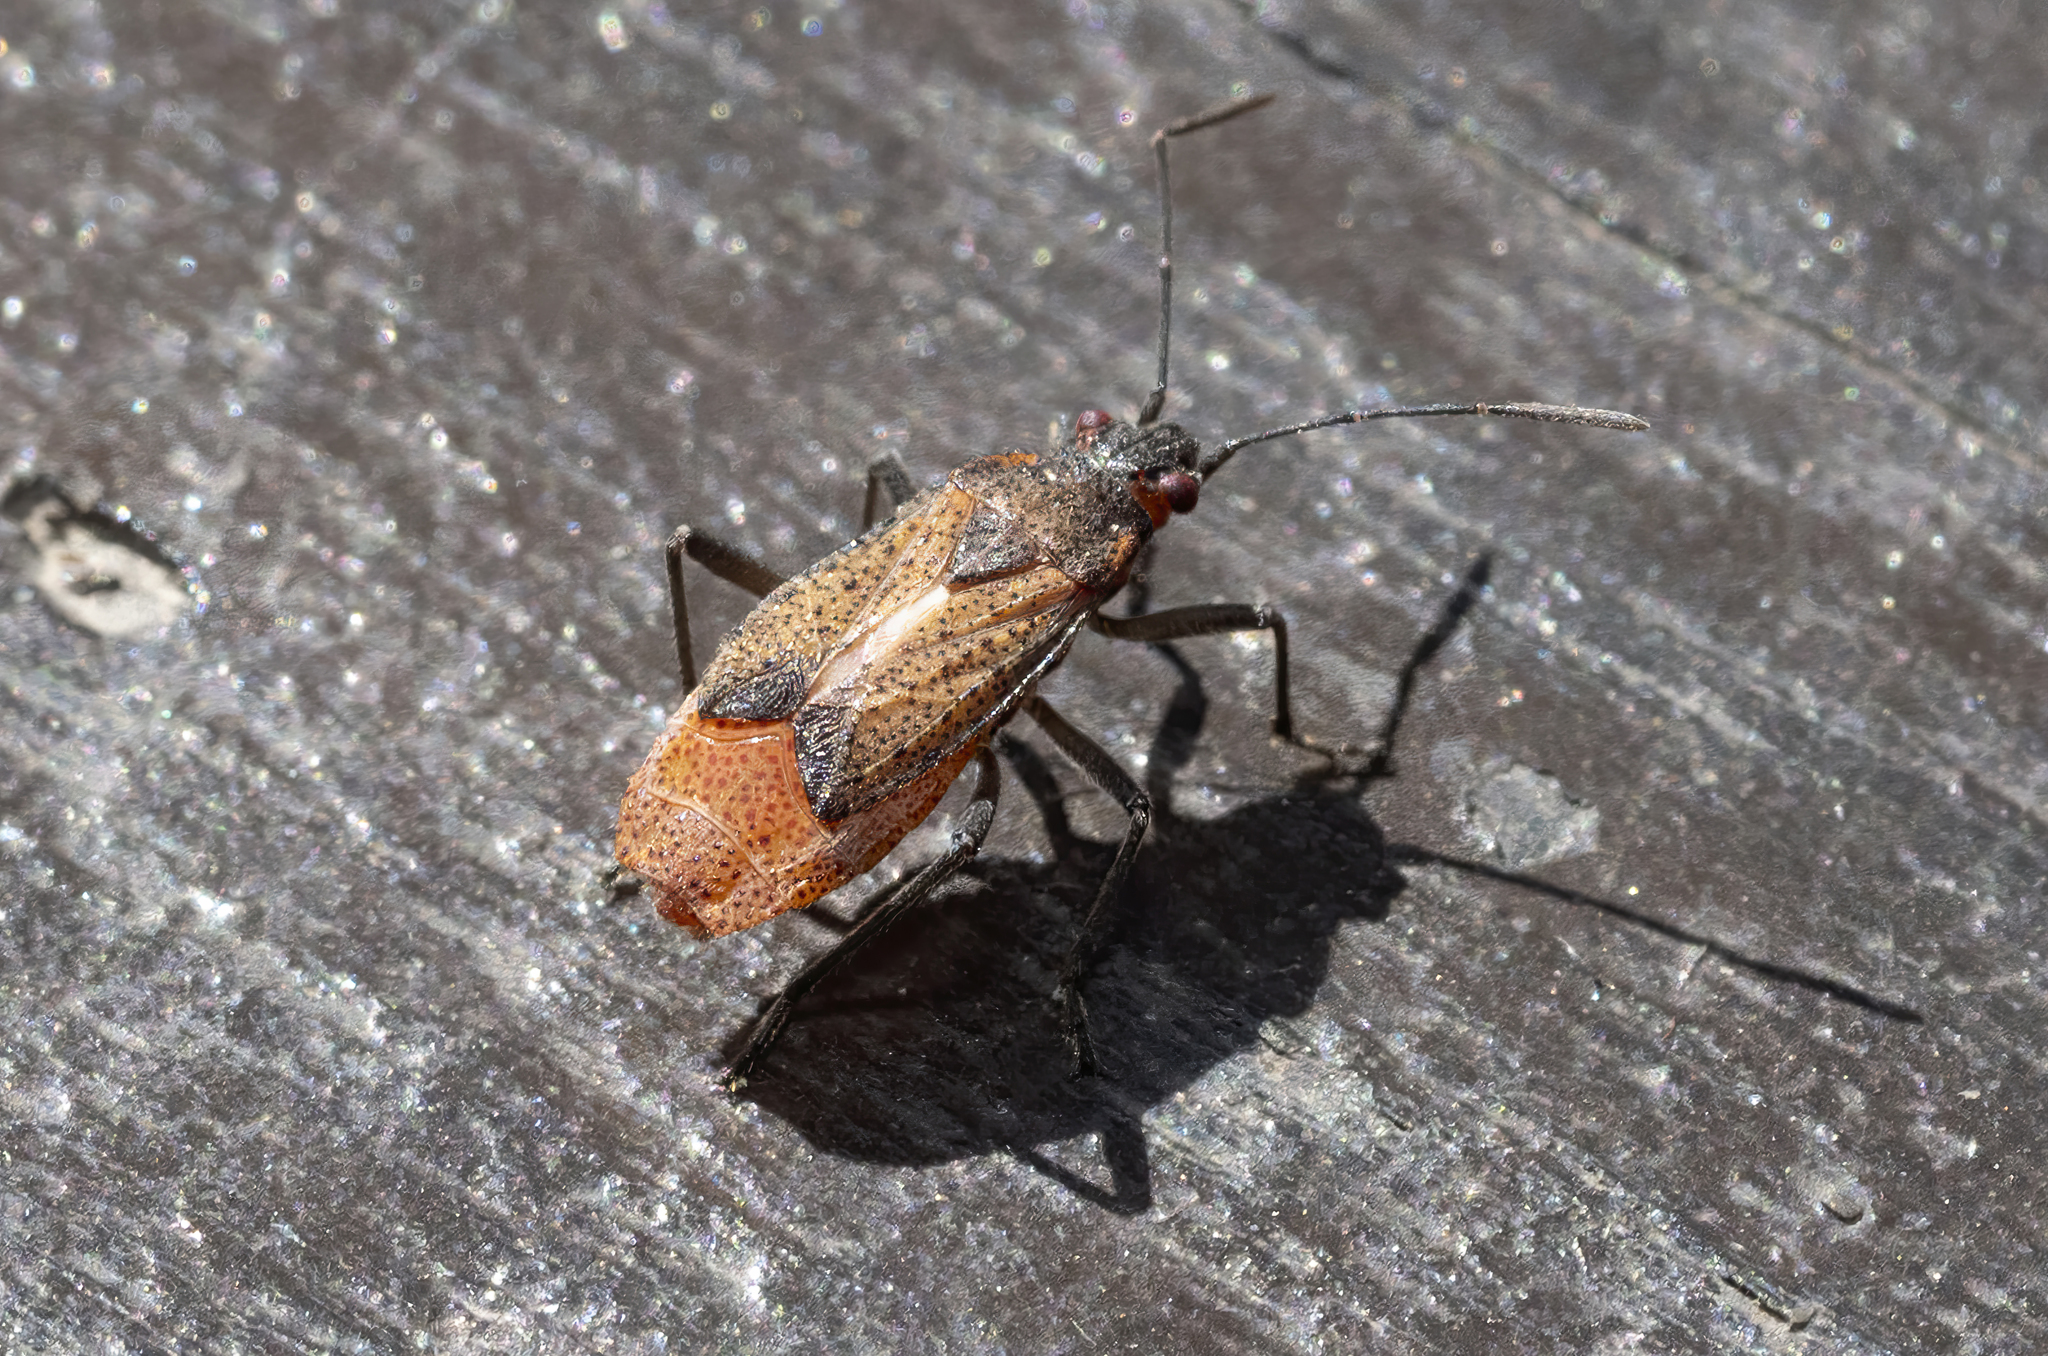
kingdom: Animalia
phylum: Arthropoda
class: Insecta
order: Hemiptera
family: Rhopalidae
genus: Jadera
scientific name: Jadera choprai
